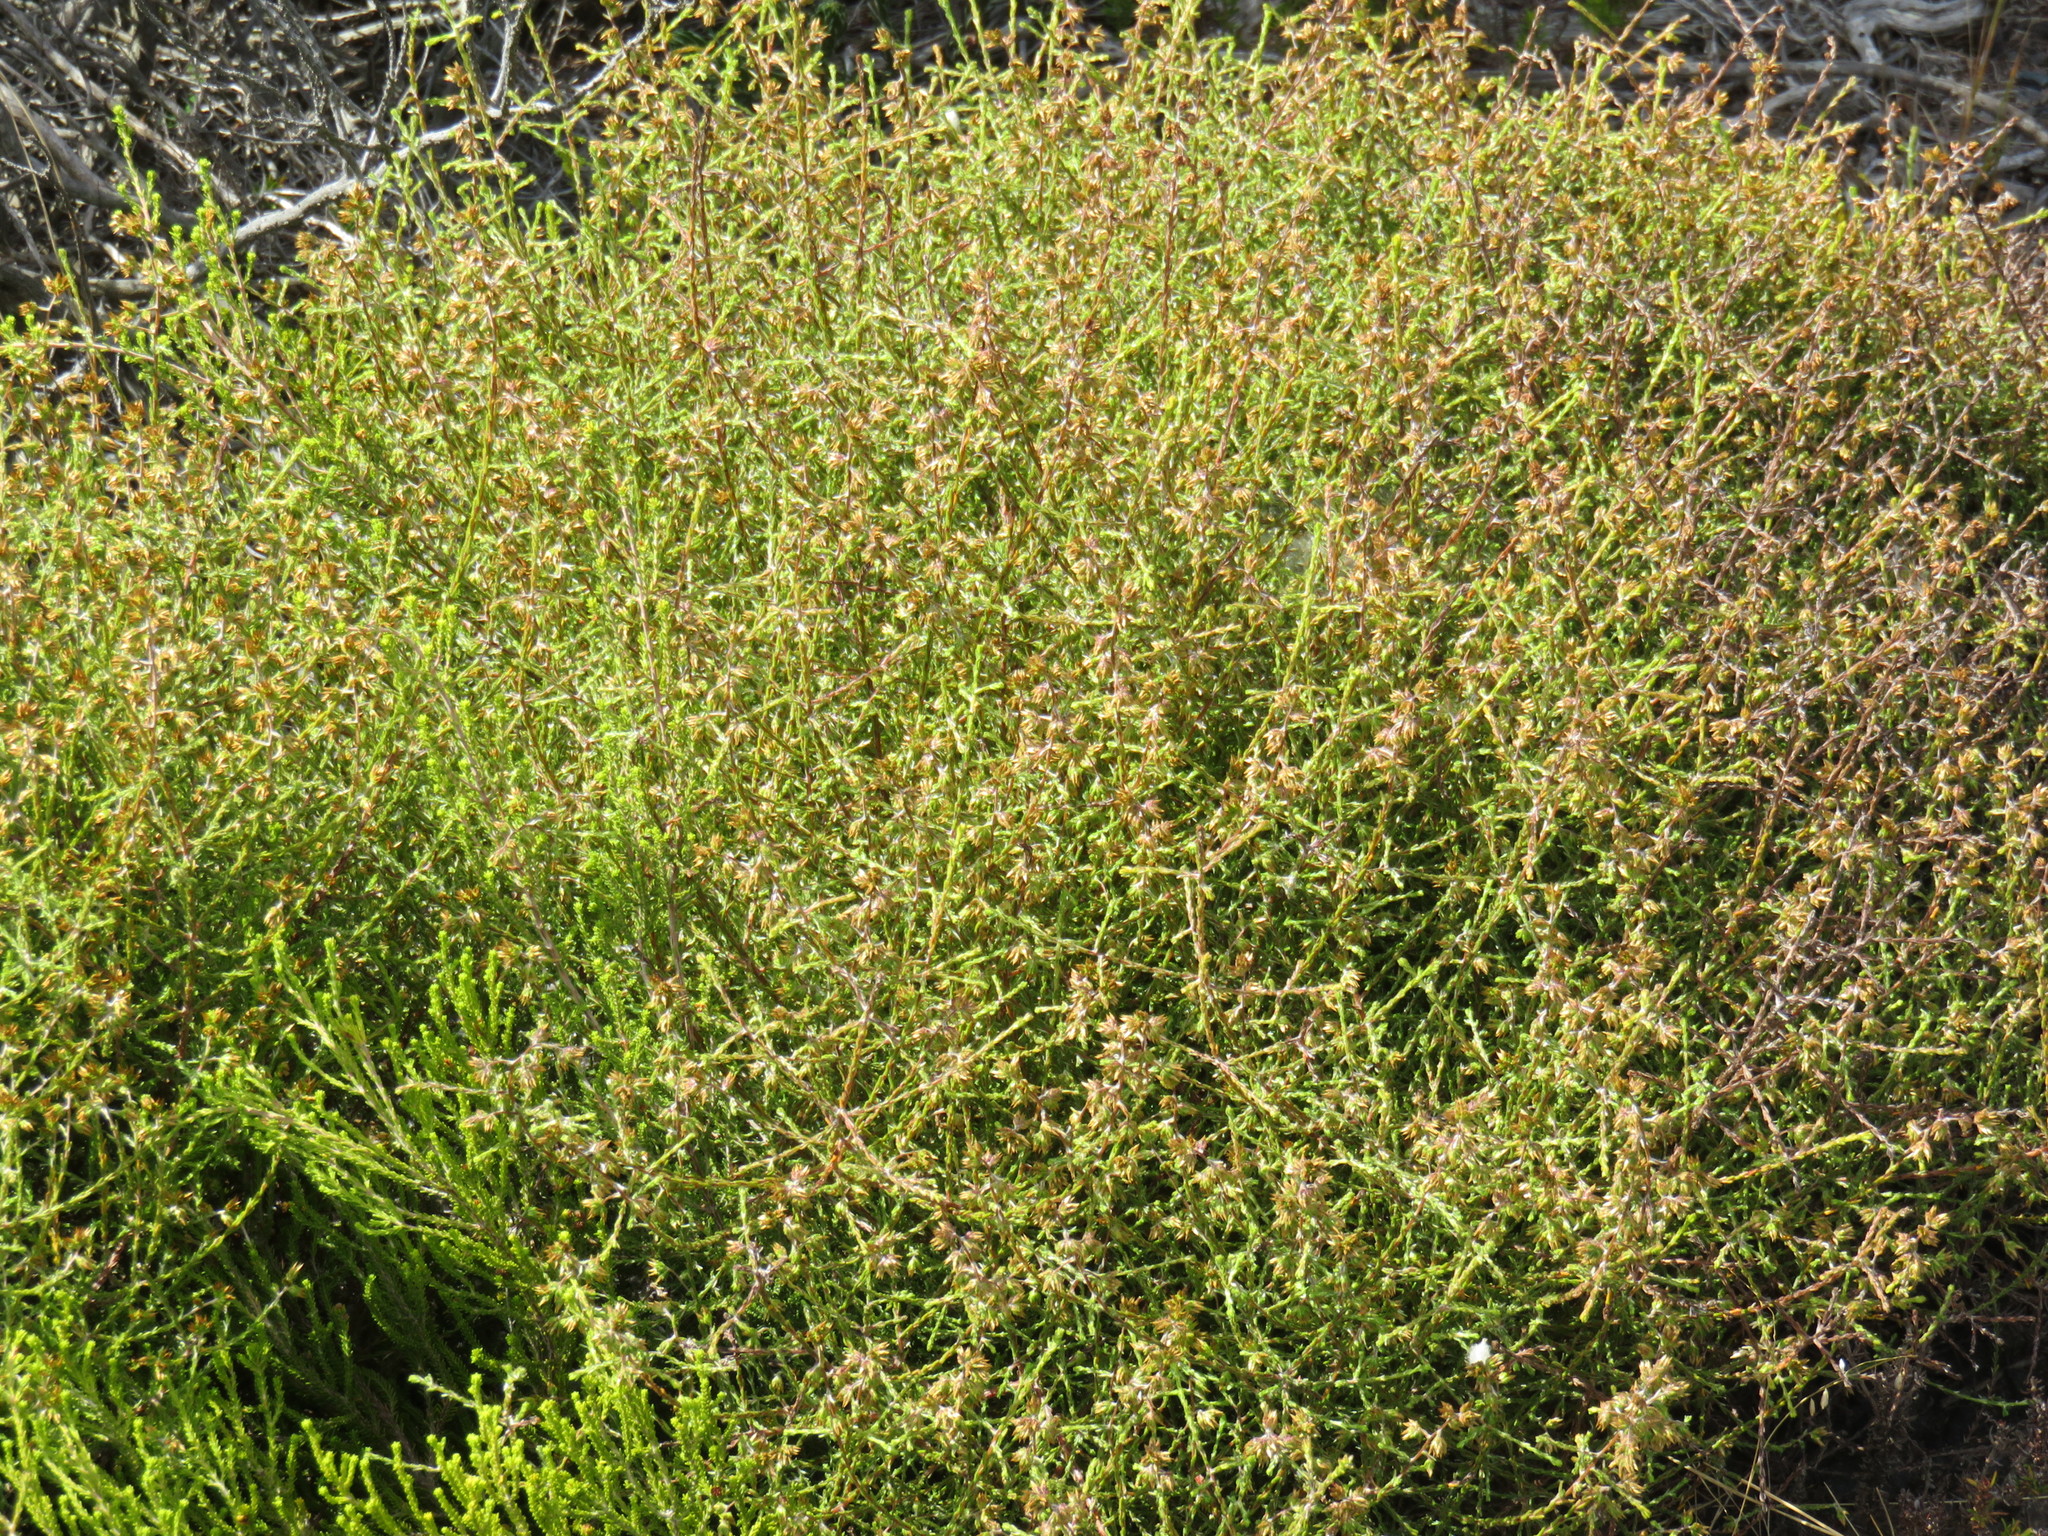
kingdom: Plantae
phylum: Tracheophyta
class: Magnoliopsida
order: Asterales
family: Asteraceae
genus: Myrovernix
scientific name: Myrovernix scaber
